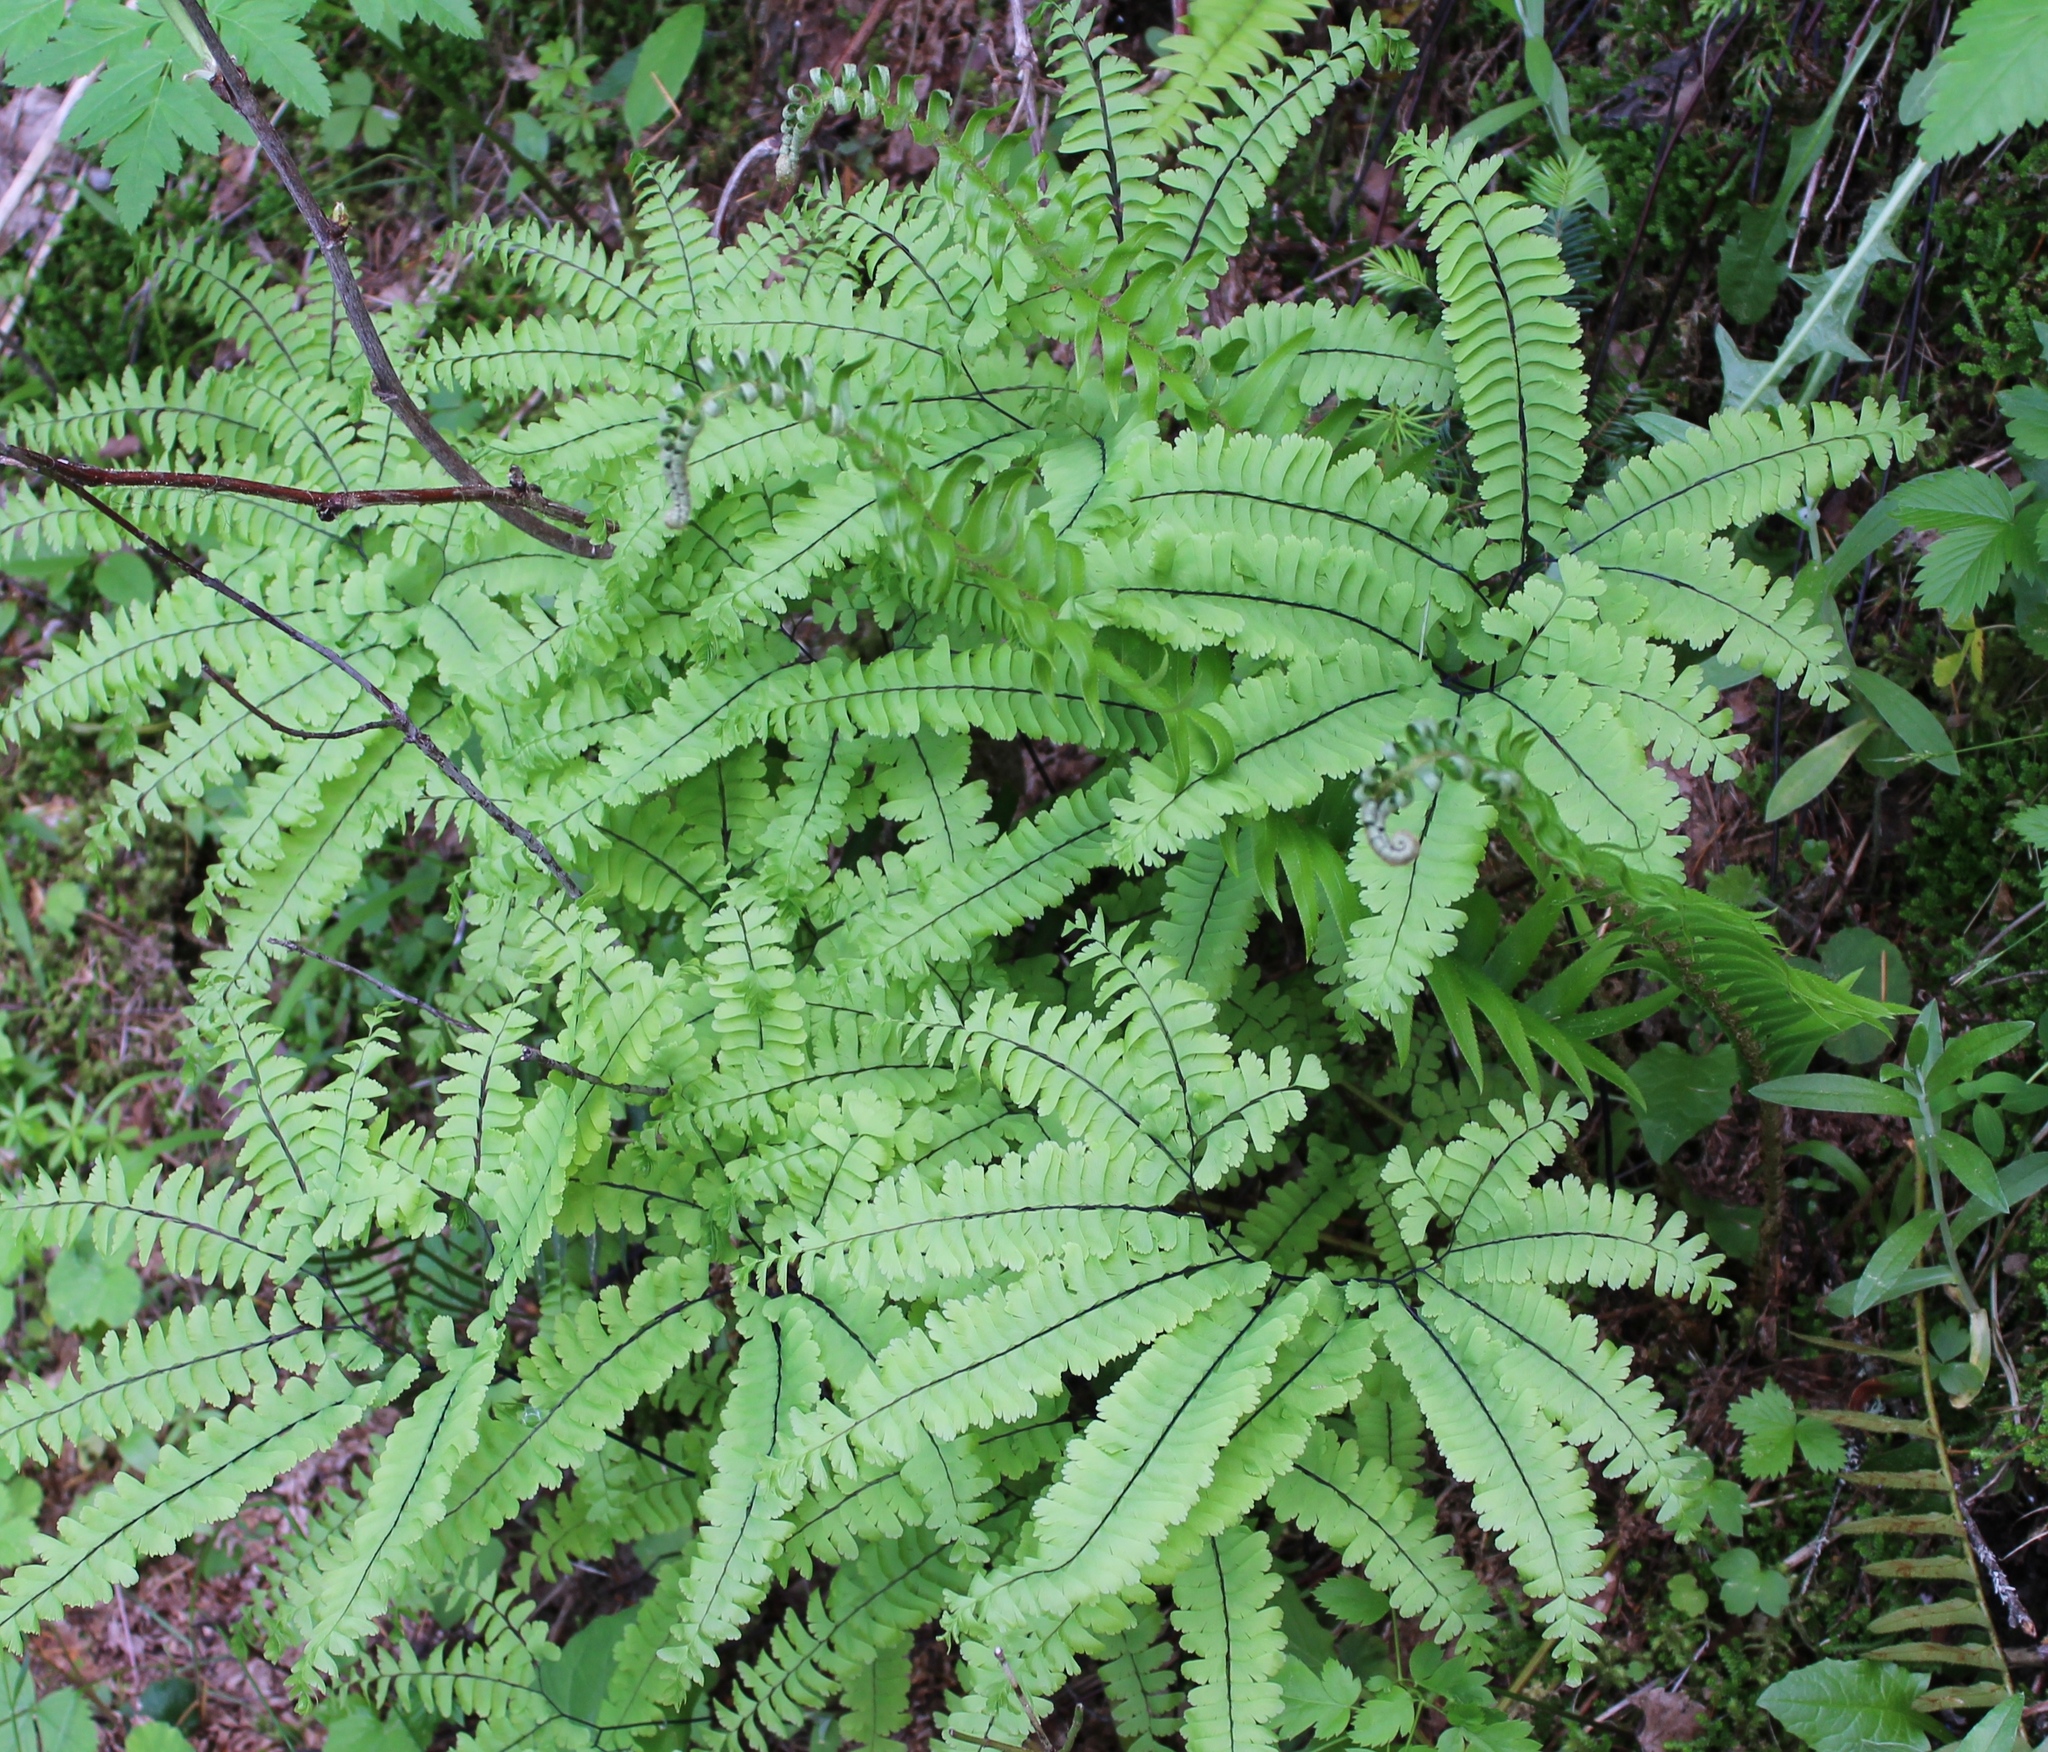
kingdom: Plantae
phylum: Tracheophyta
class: Polypodiopsida
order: Polypodiales
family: Pteridaceae
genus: Adiantum
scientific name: Adiantum aleuticum
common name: Aleutian maidenhair fern
